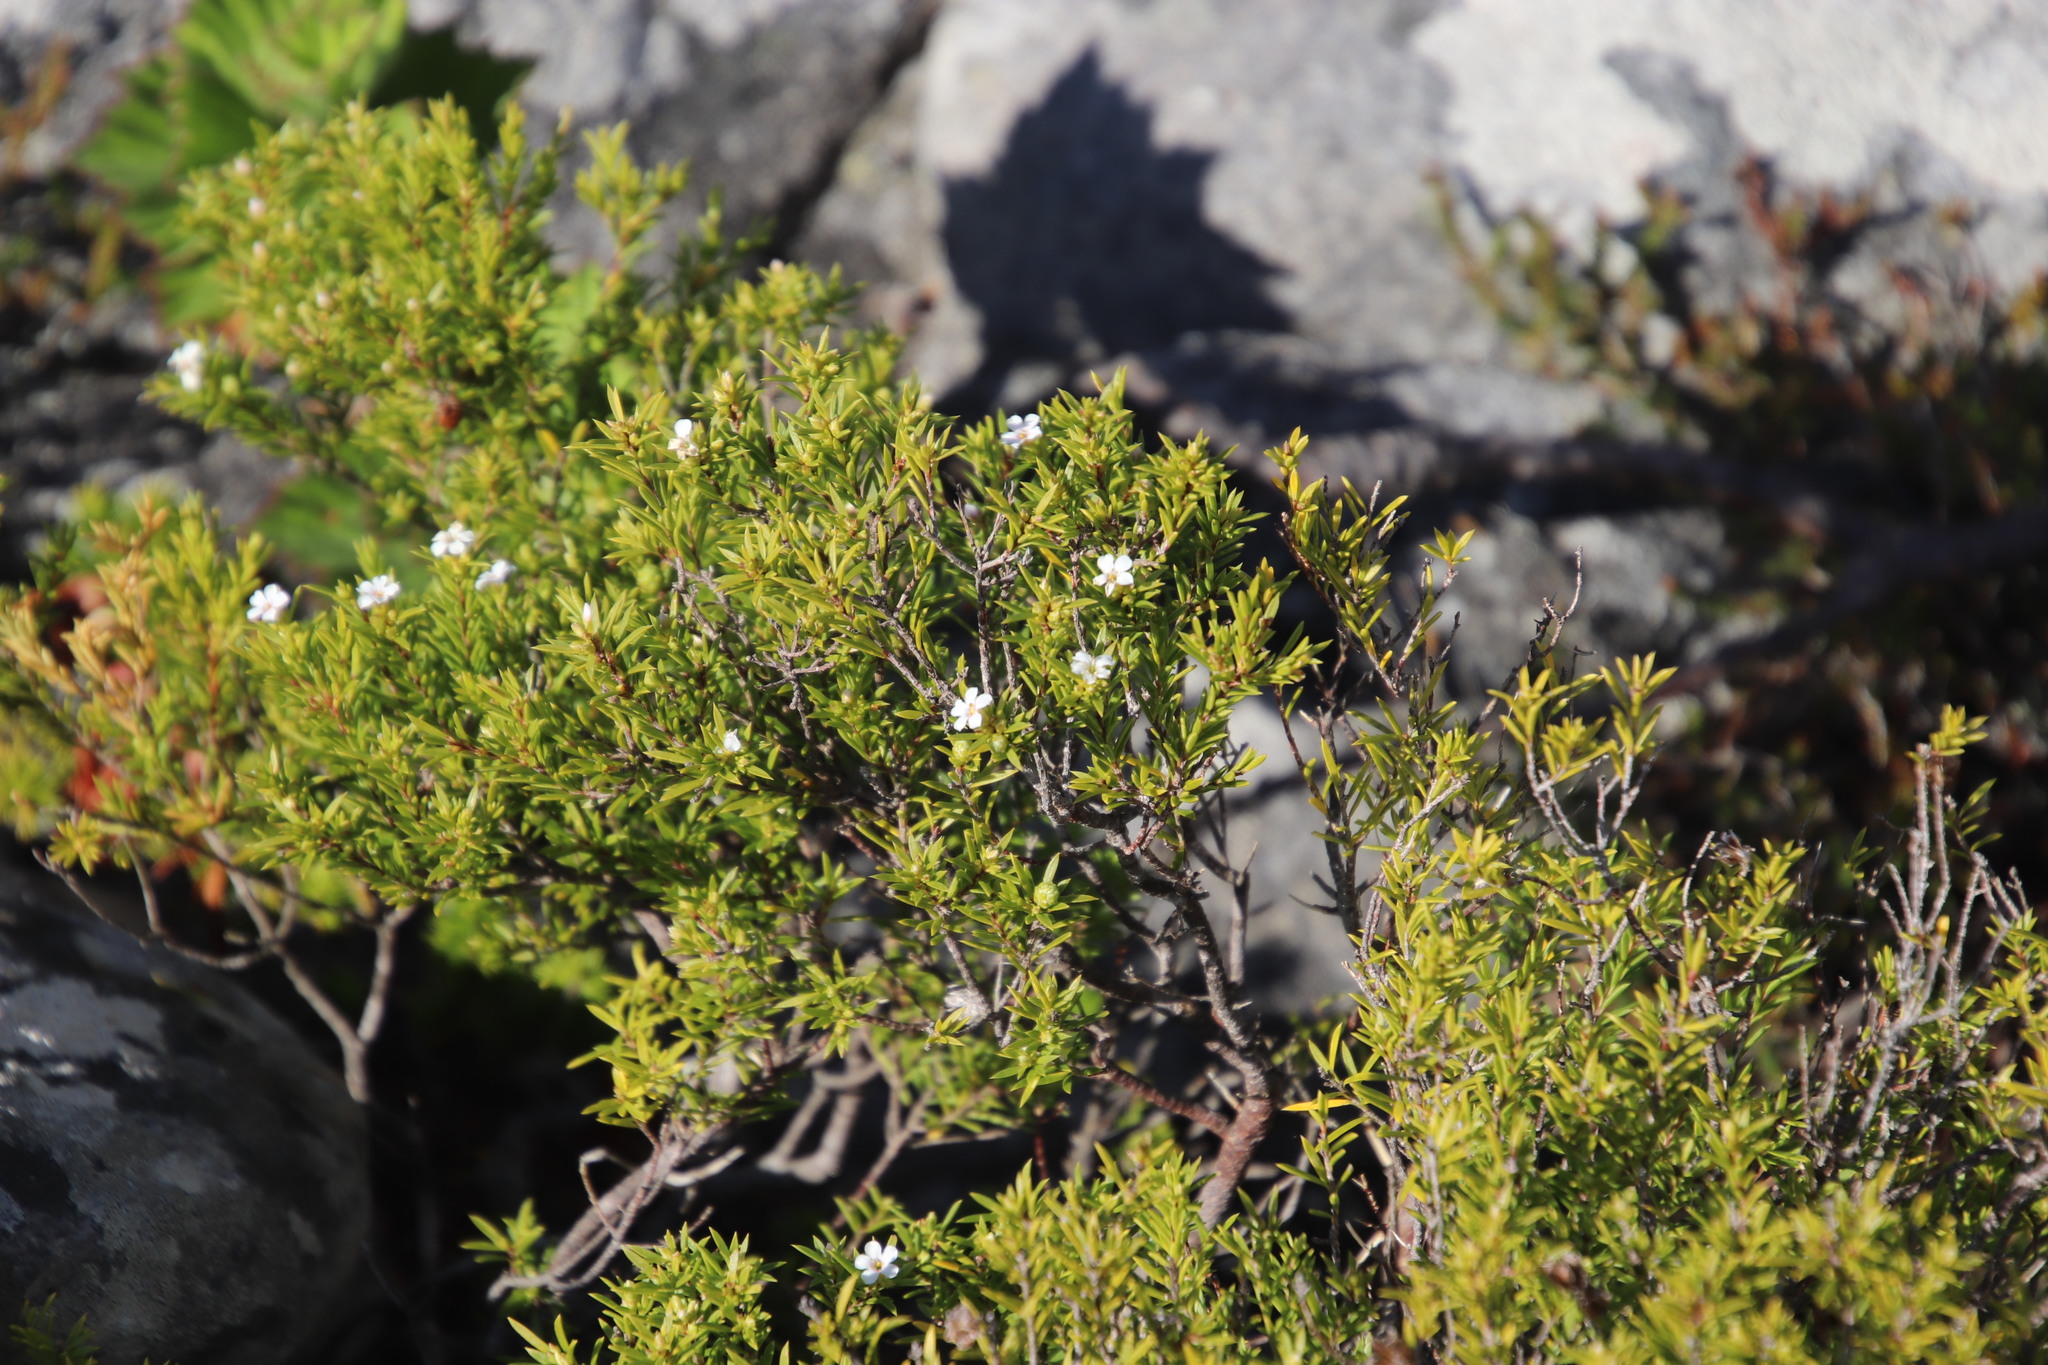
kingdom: Plantae
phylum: Tracheophyta
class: Magnoliopsida
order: Sapindales
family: Rutaceae
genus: Coleonema
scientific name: Coleonema album
